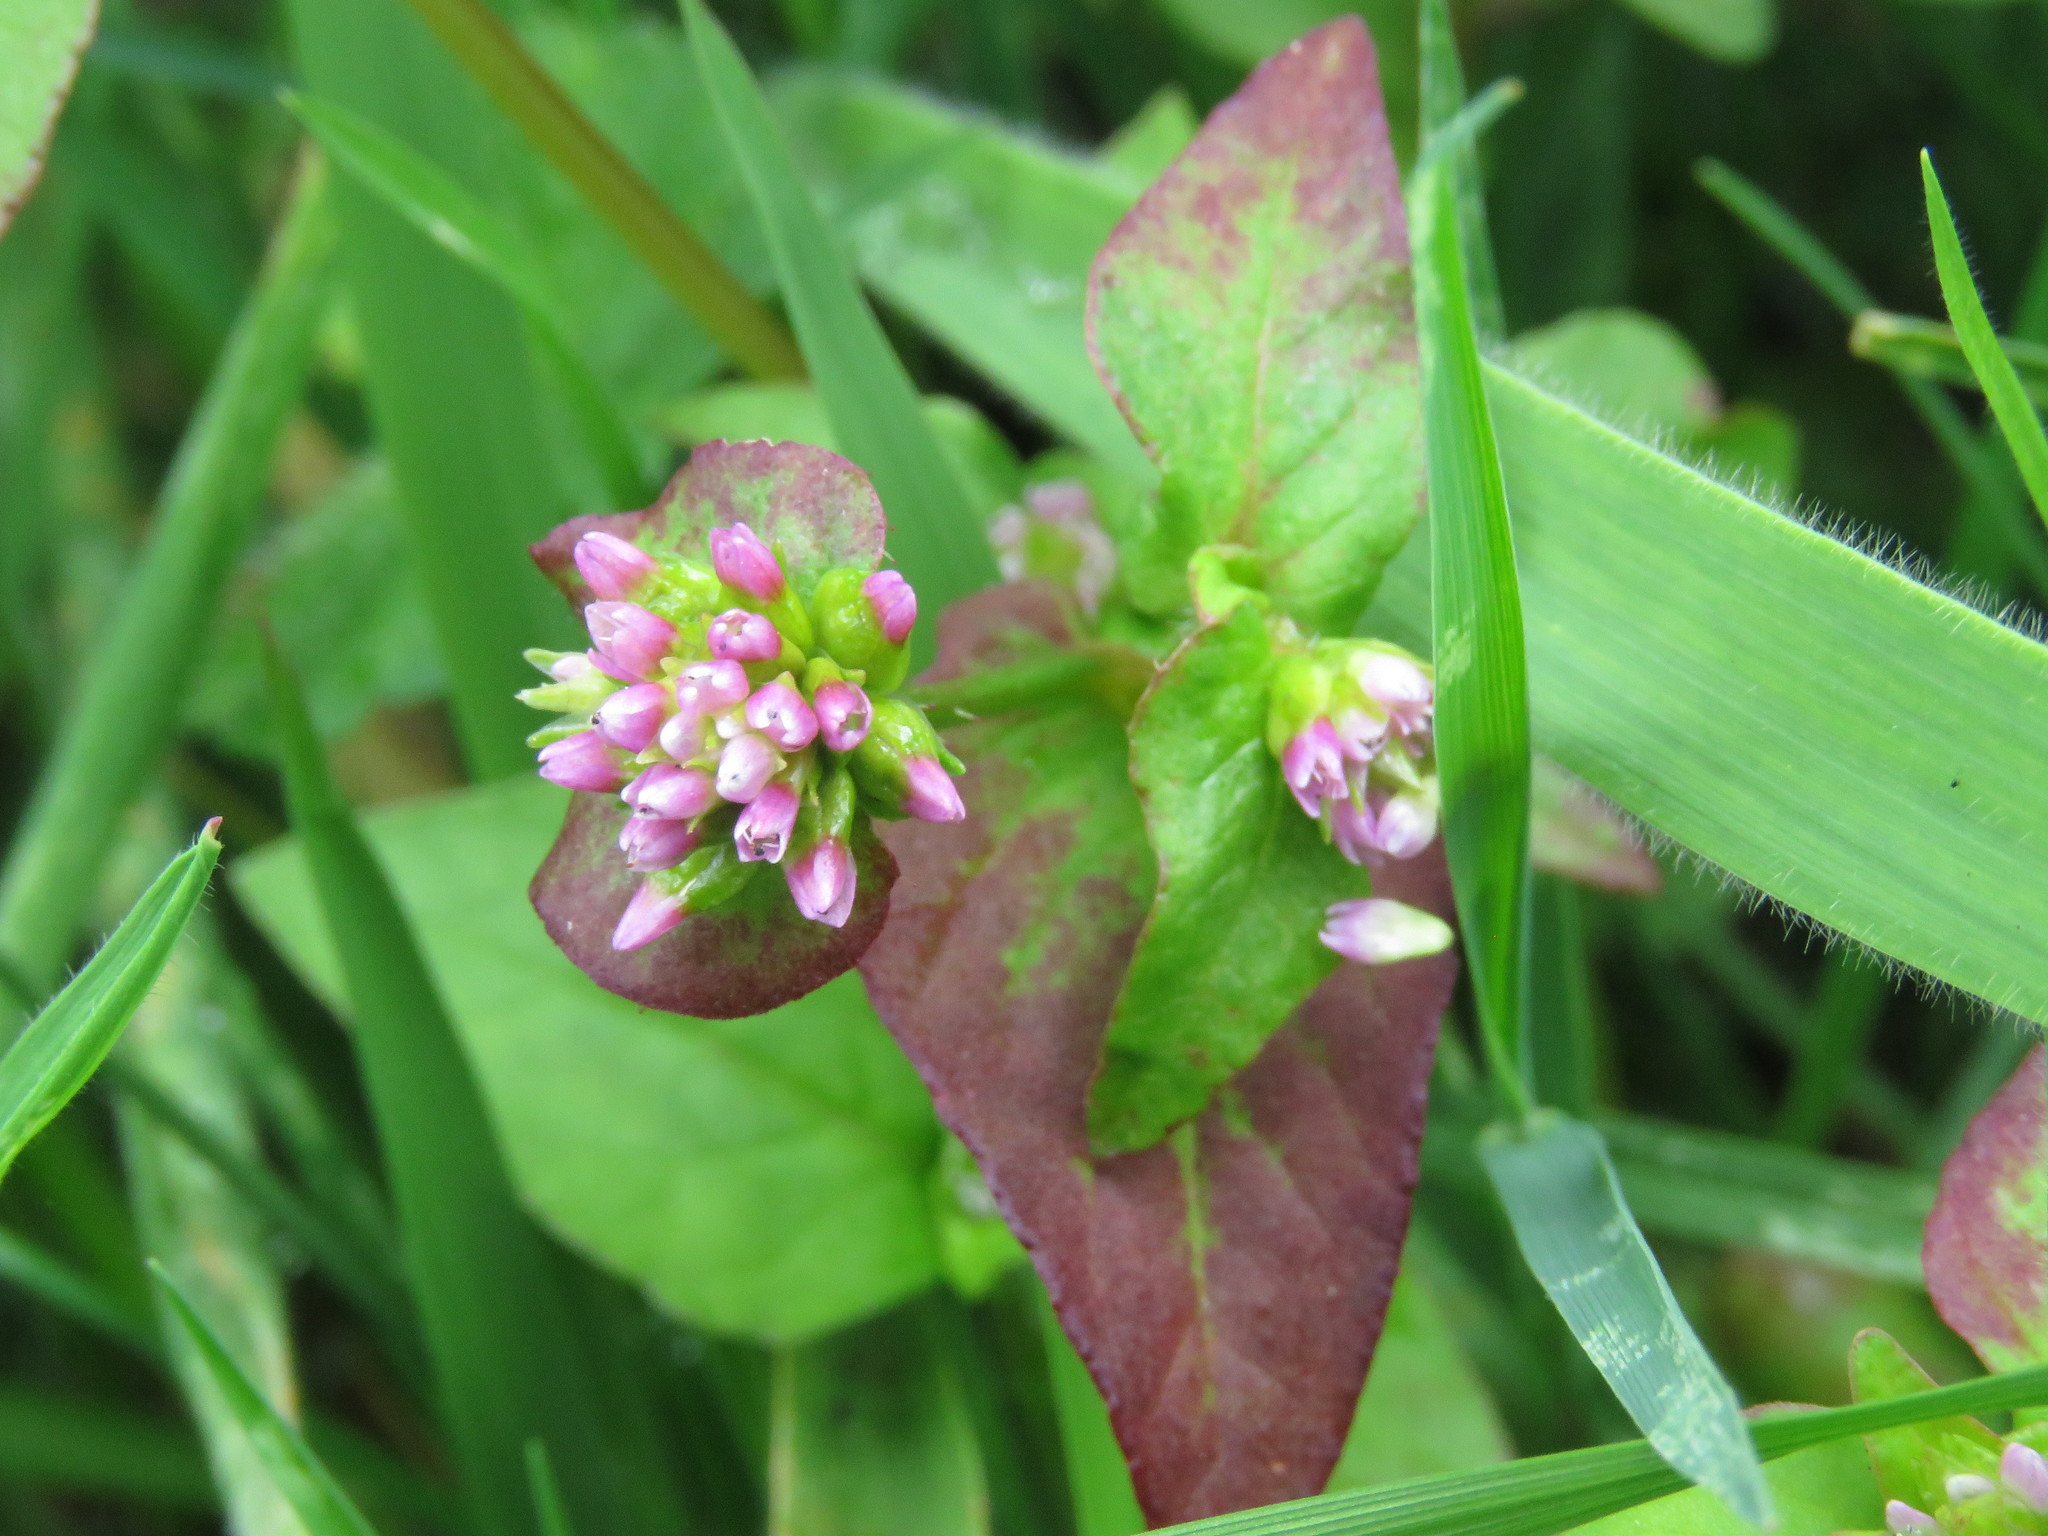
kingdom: Plantae
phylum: Tracheophyta
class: Magnoliopsida
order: Caryophyllales
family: Polygonaceae
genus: Persicaria
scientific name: Persicaria nepalensis
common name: Nepal persicaria
